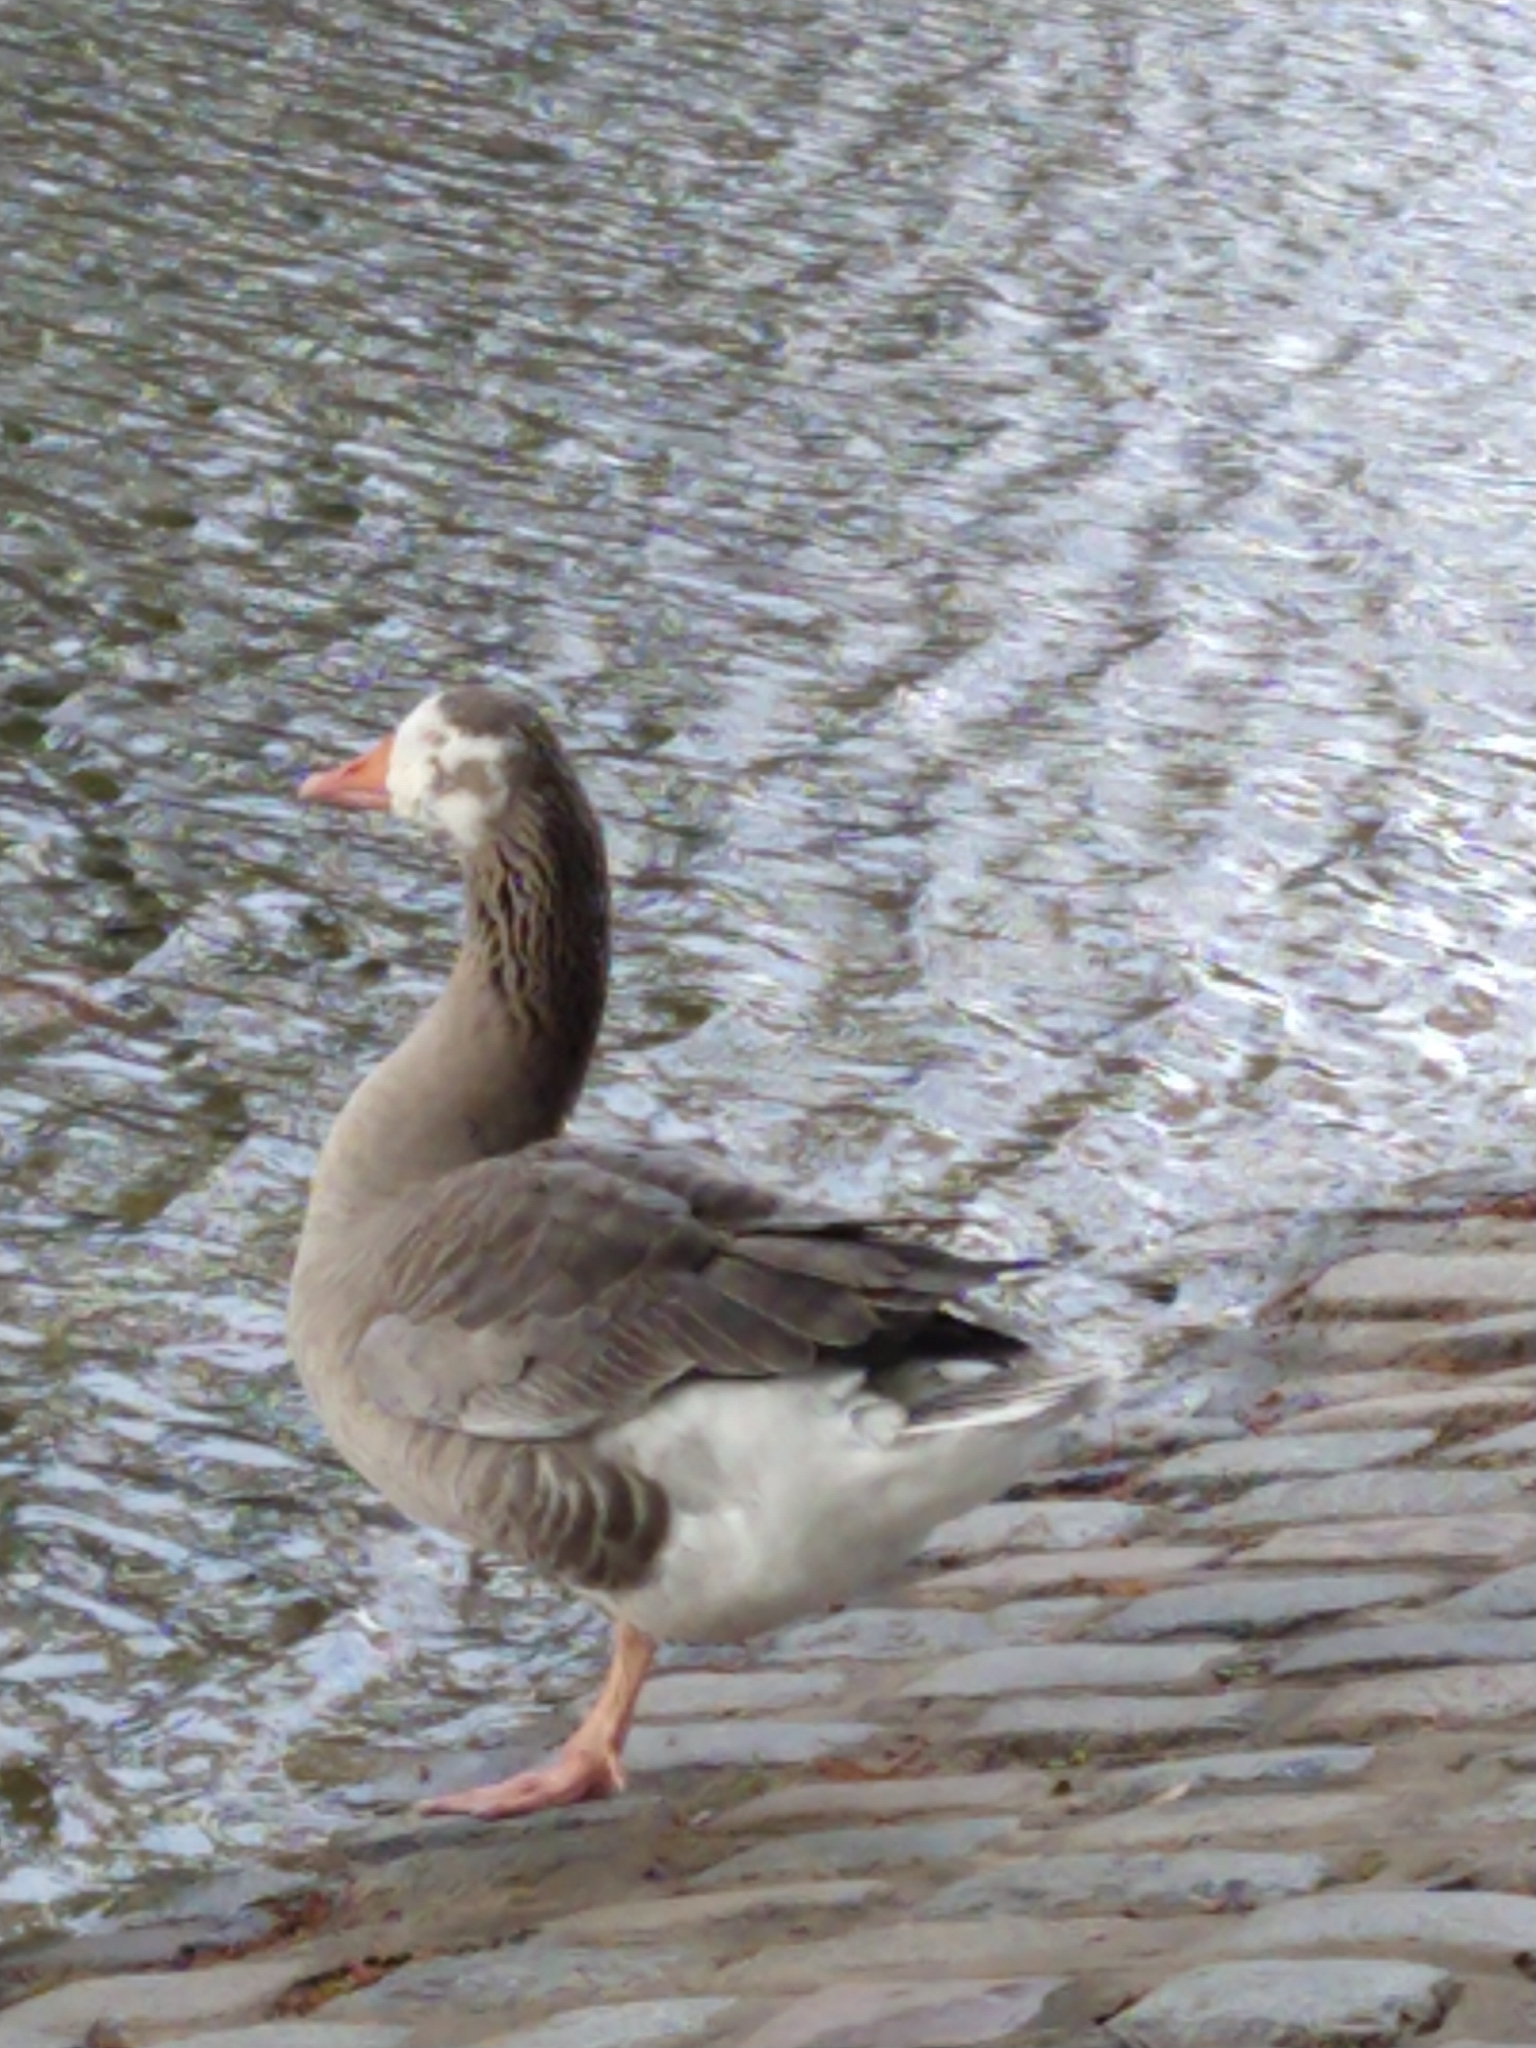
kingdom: Animalia
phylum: Chordata
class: Aves
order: Anseriformes
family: Anatidae
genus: Anser
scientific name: Anser anser
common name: Greylag goose
